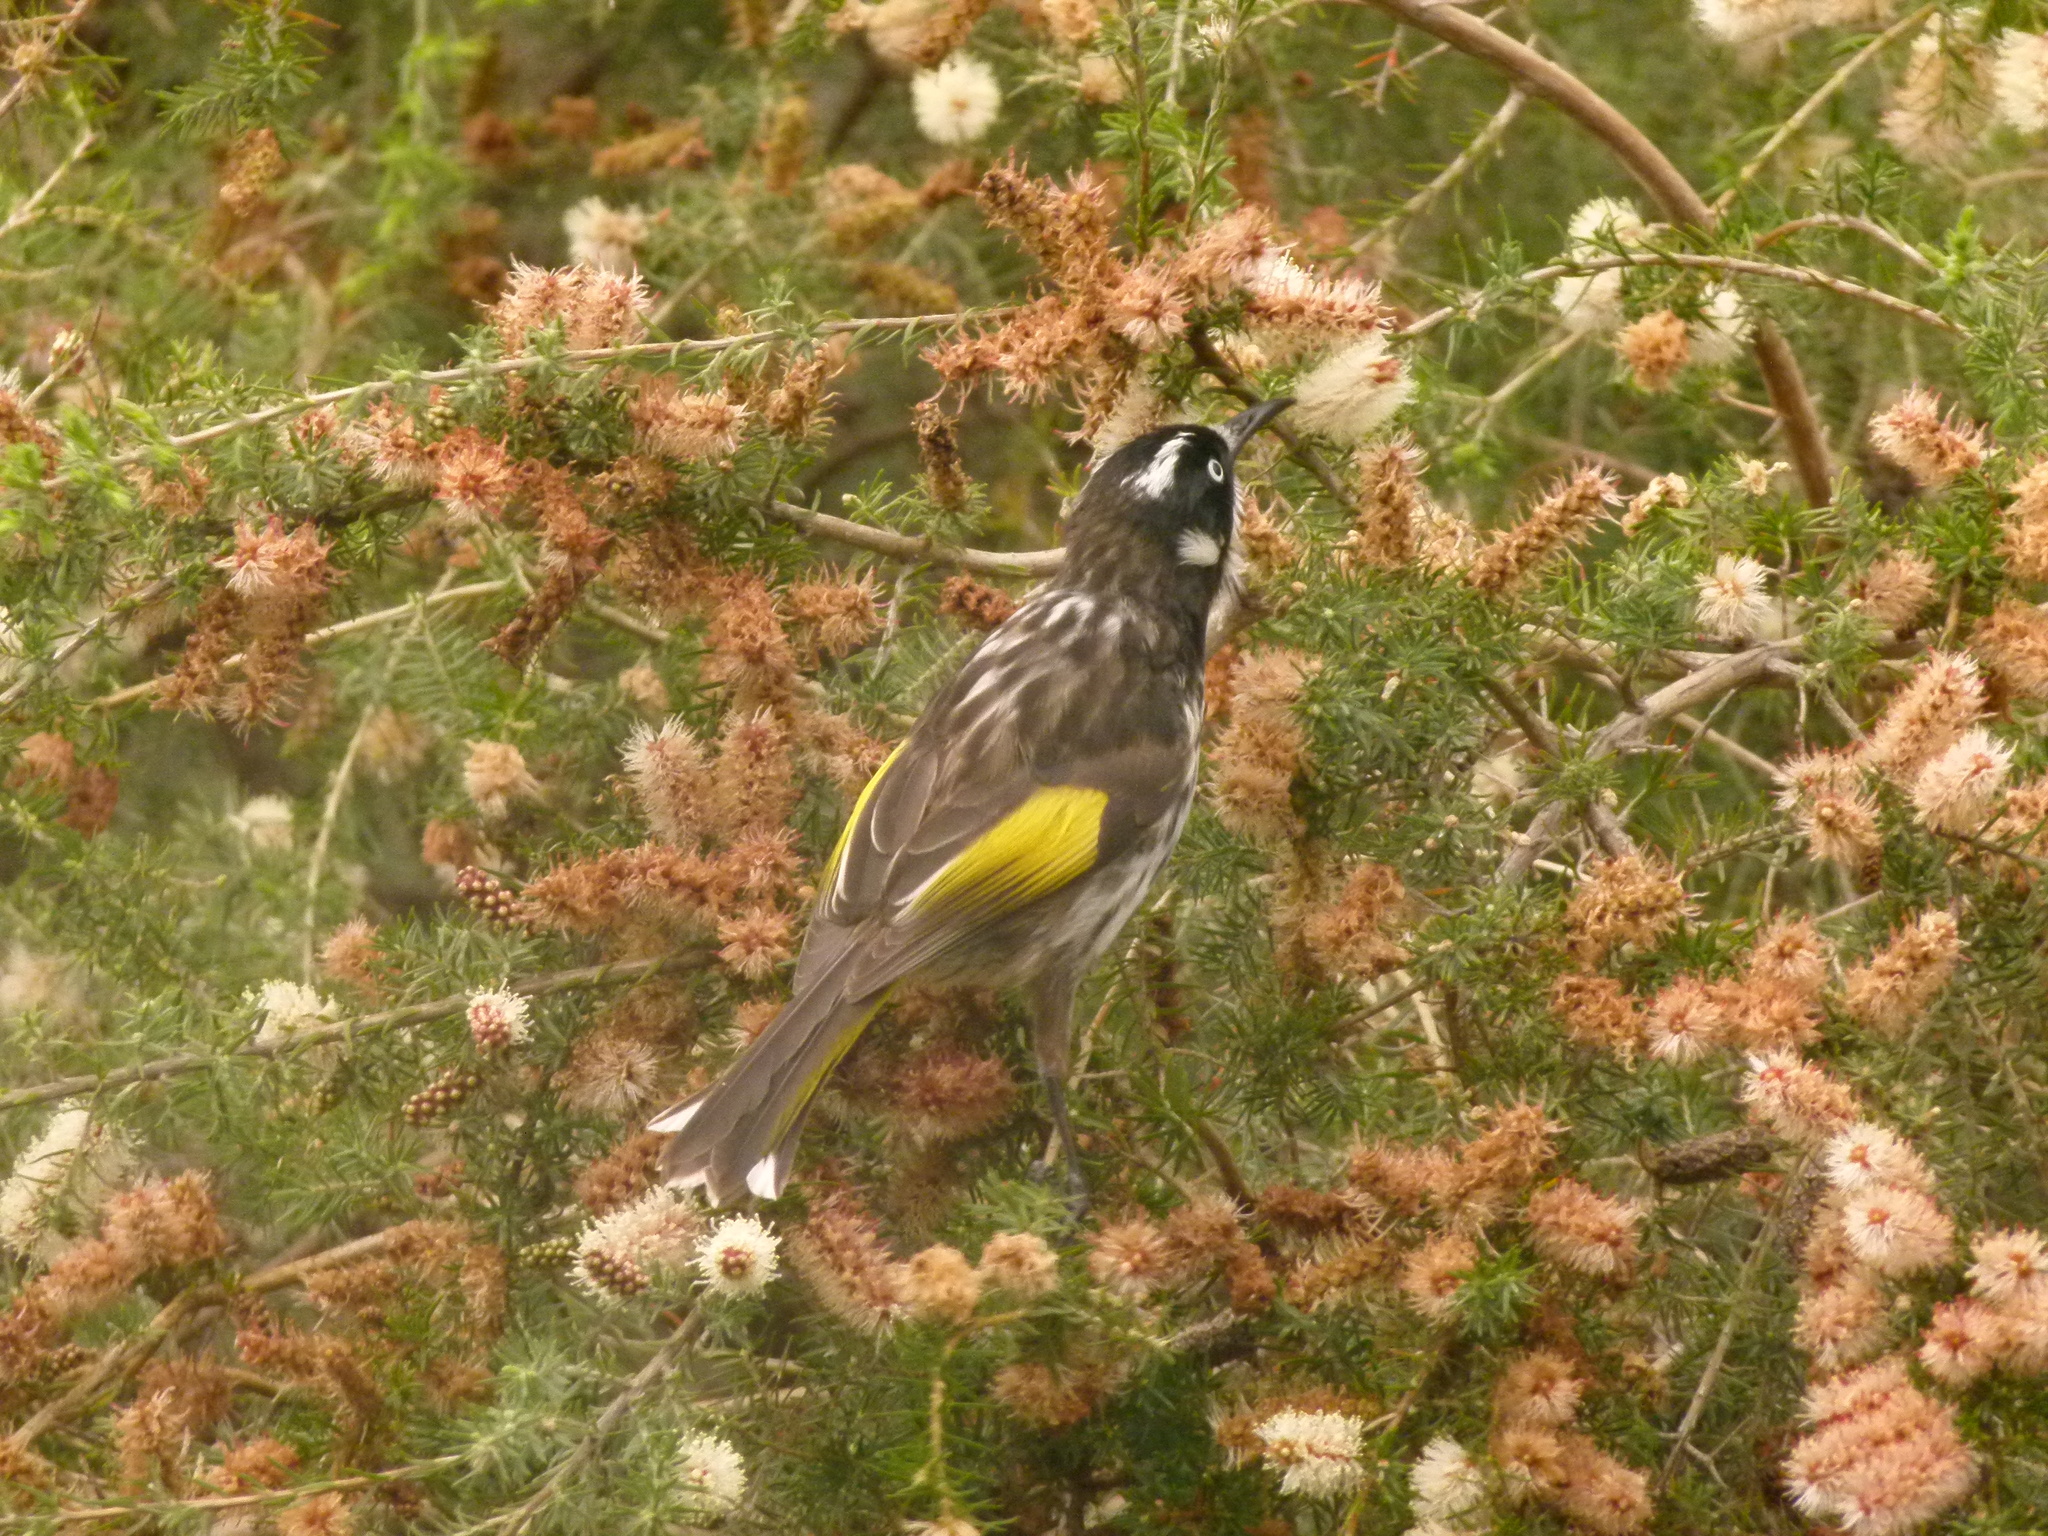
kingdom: Animalia
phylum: Chordata
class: Aves
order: Passeriformes
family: Meliphagidae
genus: Phylidonyris
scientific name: Phylidonyris novaehollandiae
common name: New holland honeyeater
